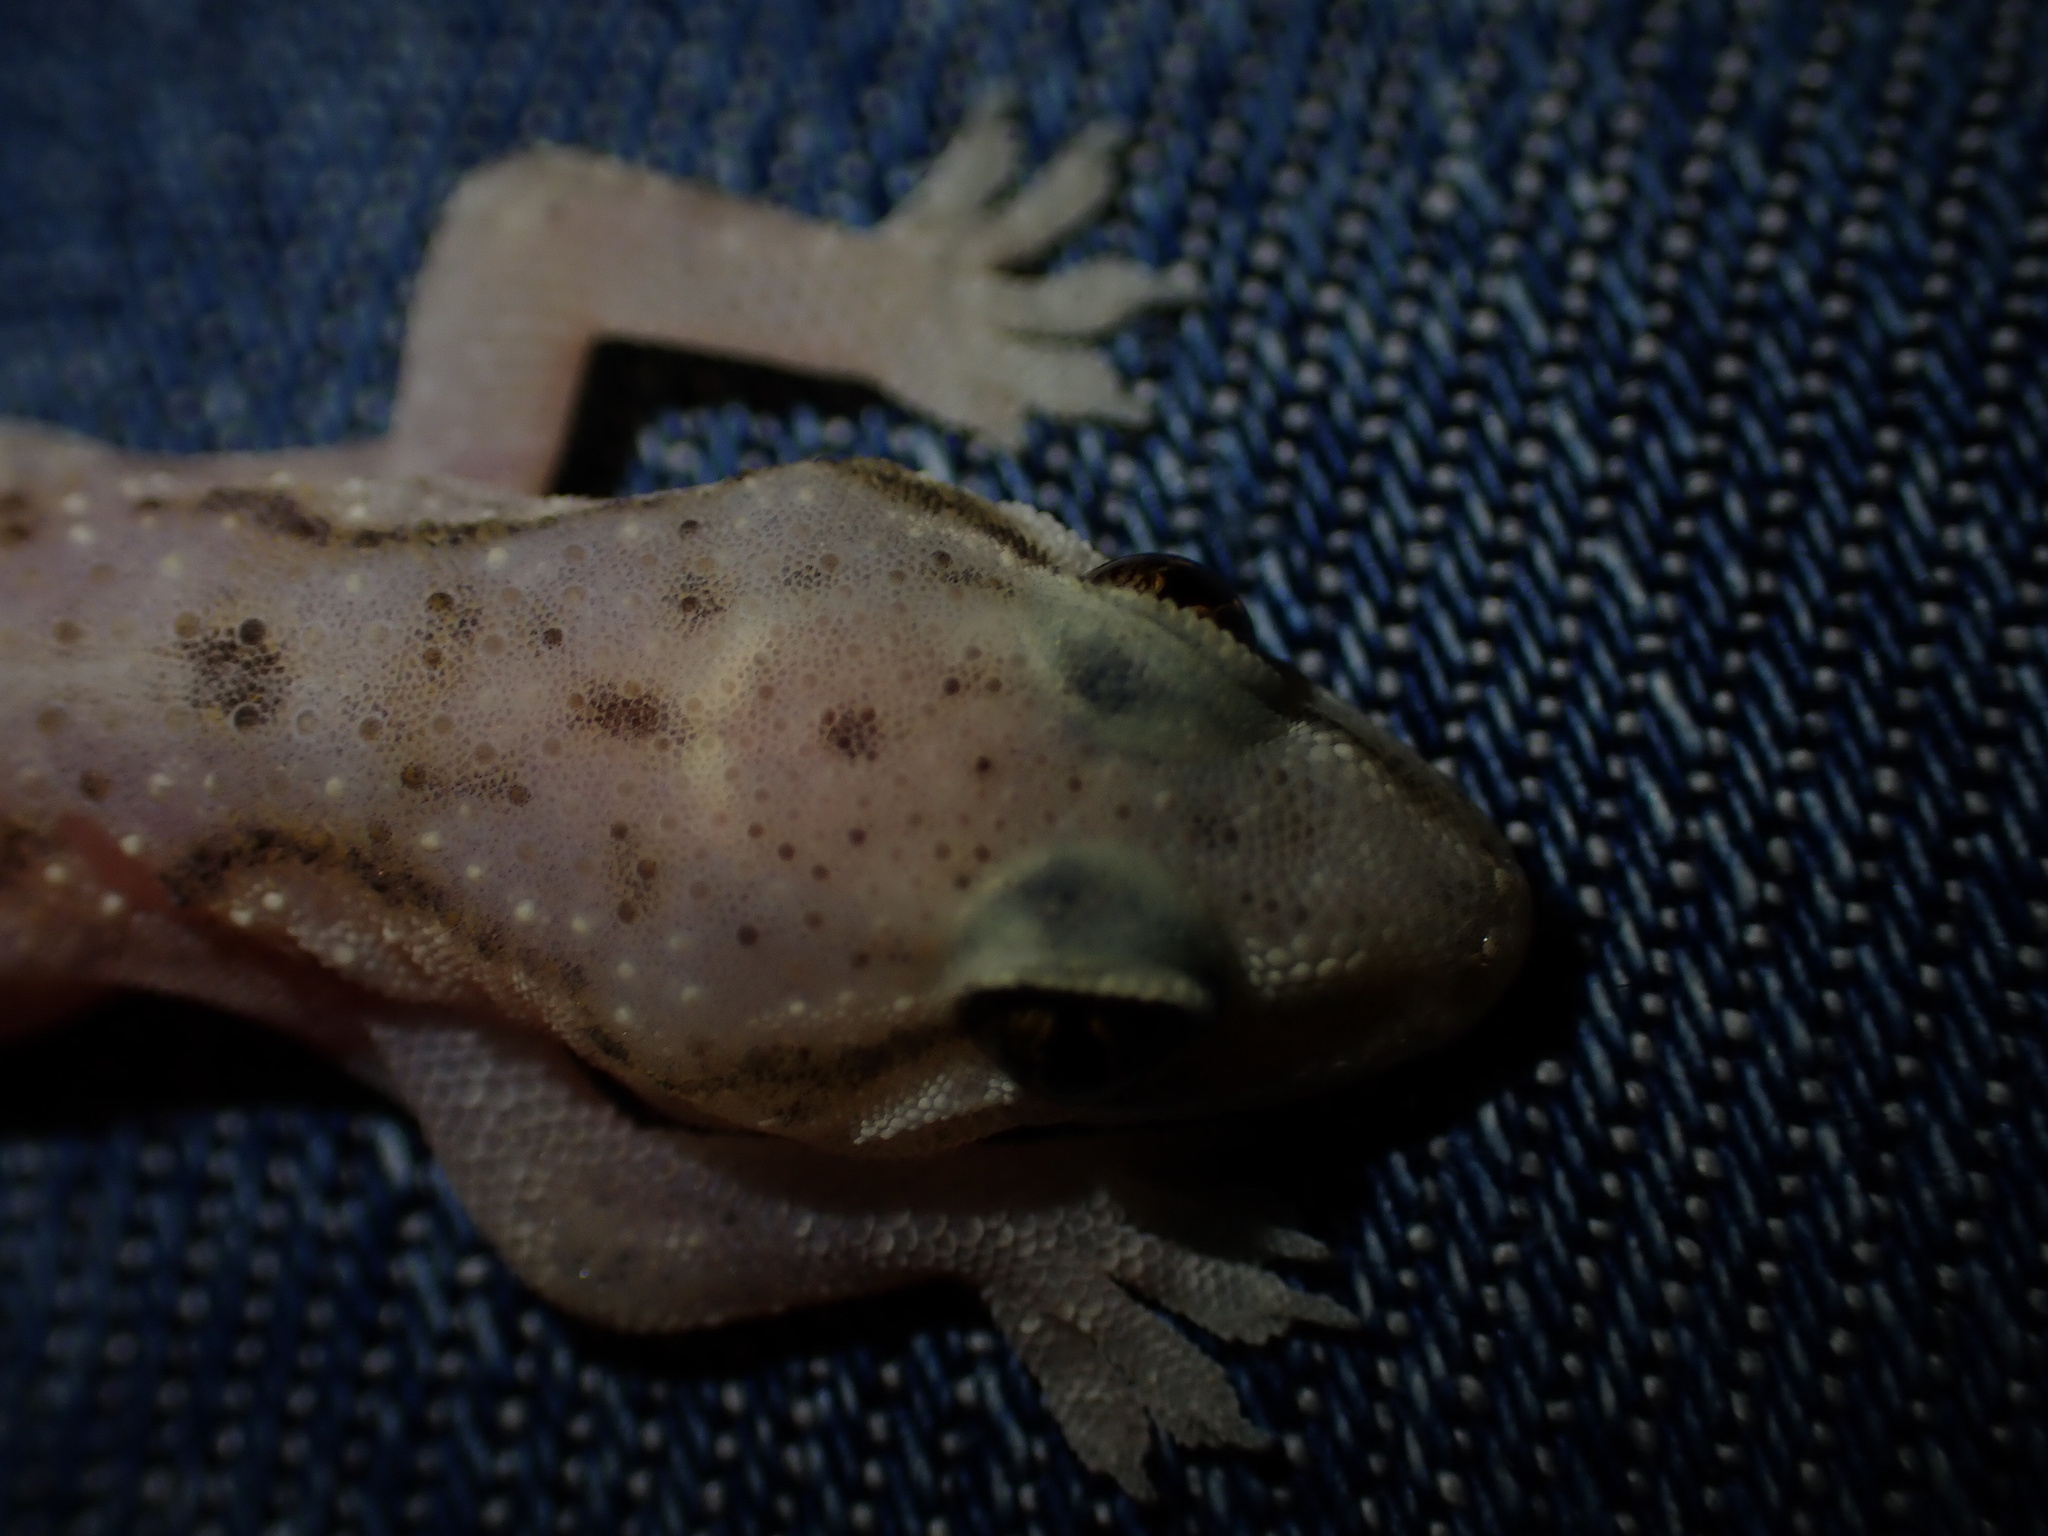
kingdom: Animalia
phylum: Chordata
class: Squamata
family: Gekkonidae
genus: Hemidactylus
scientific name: Hemidactylus robustus
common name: Heyden’s gecko
